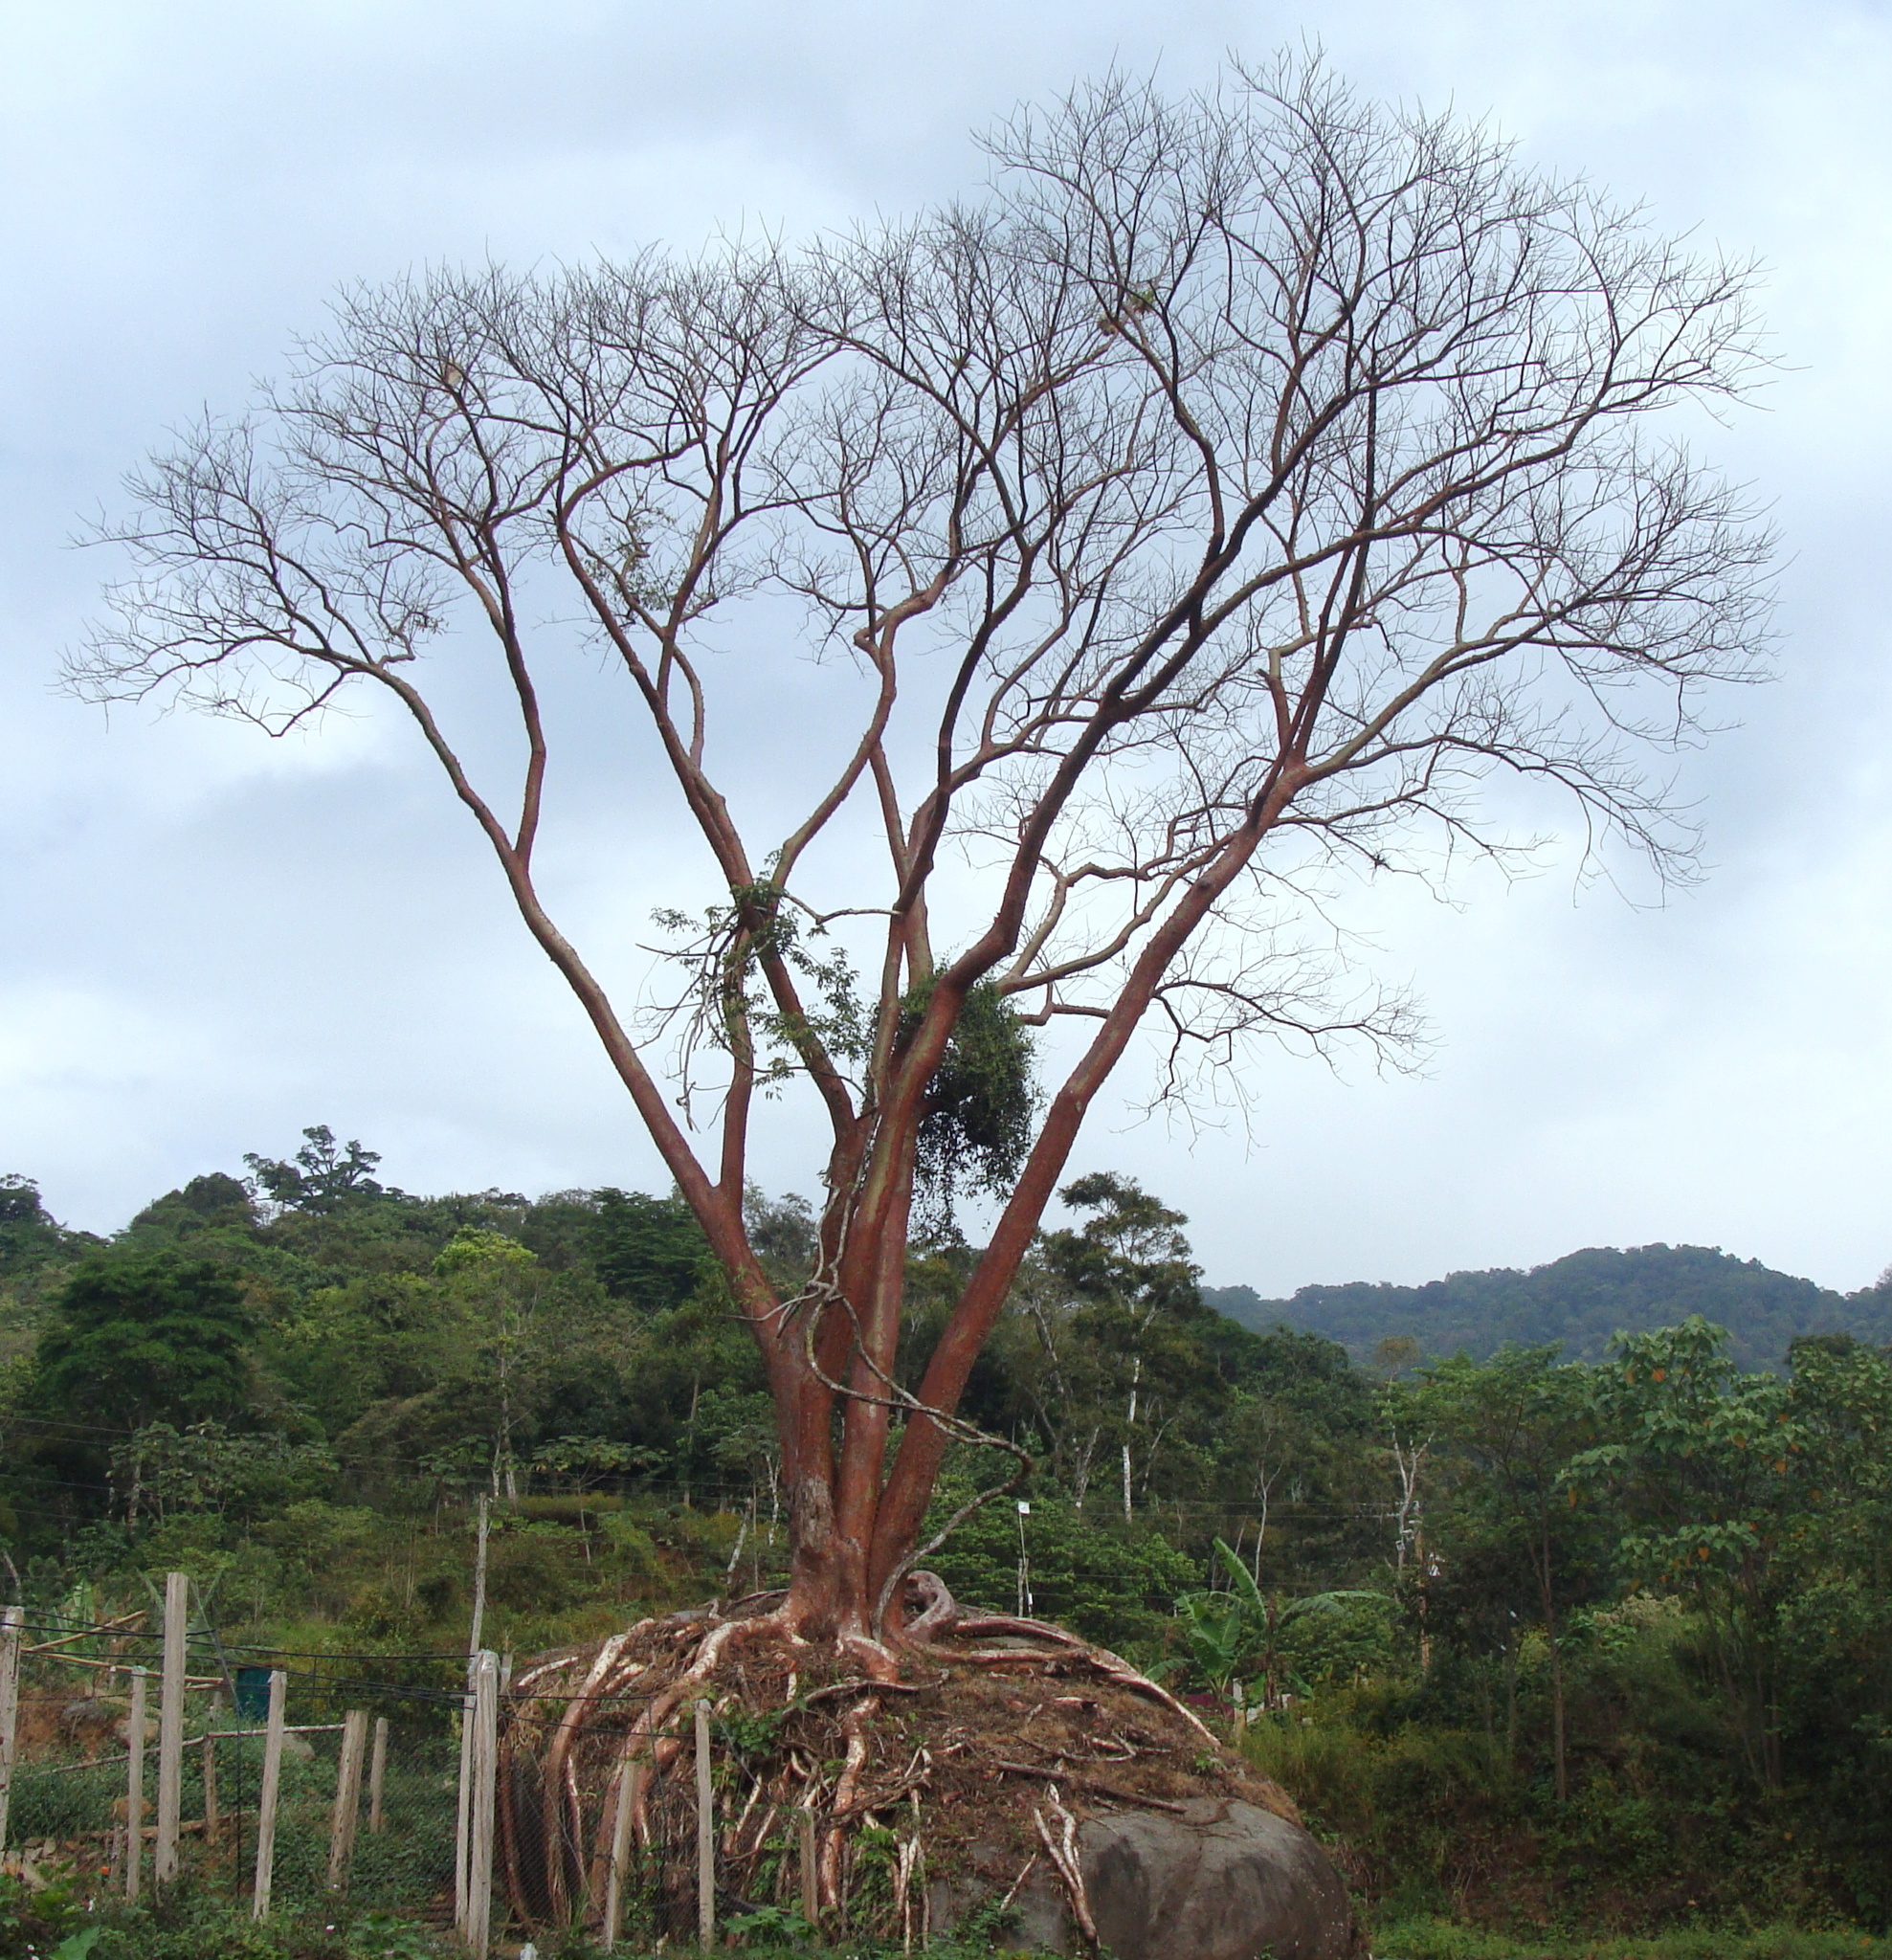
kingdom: Plantae
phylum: Tracheophyta
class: Magnoliopsida
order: Sapindales
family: Burseraceae
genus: Bursera
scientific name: Bursera simaruba
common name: Turpentine tree
